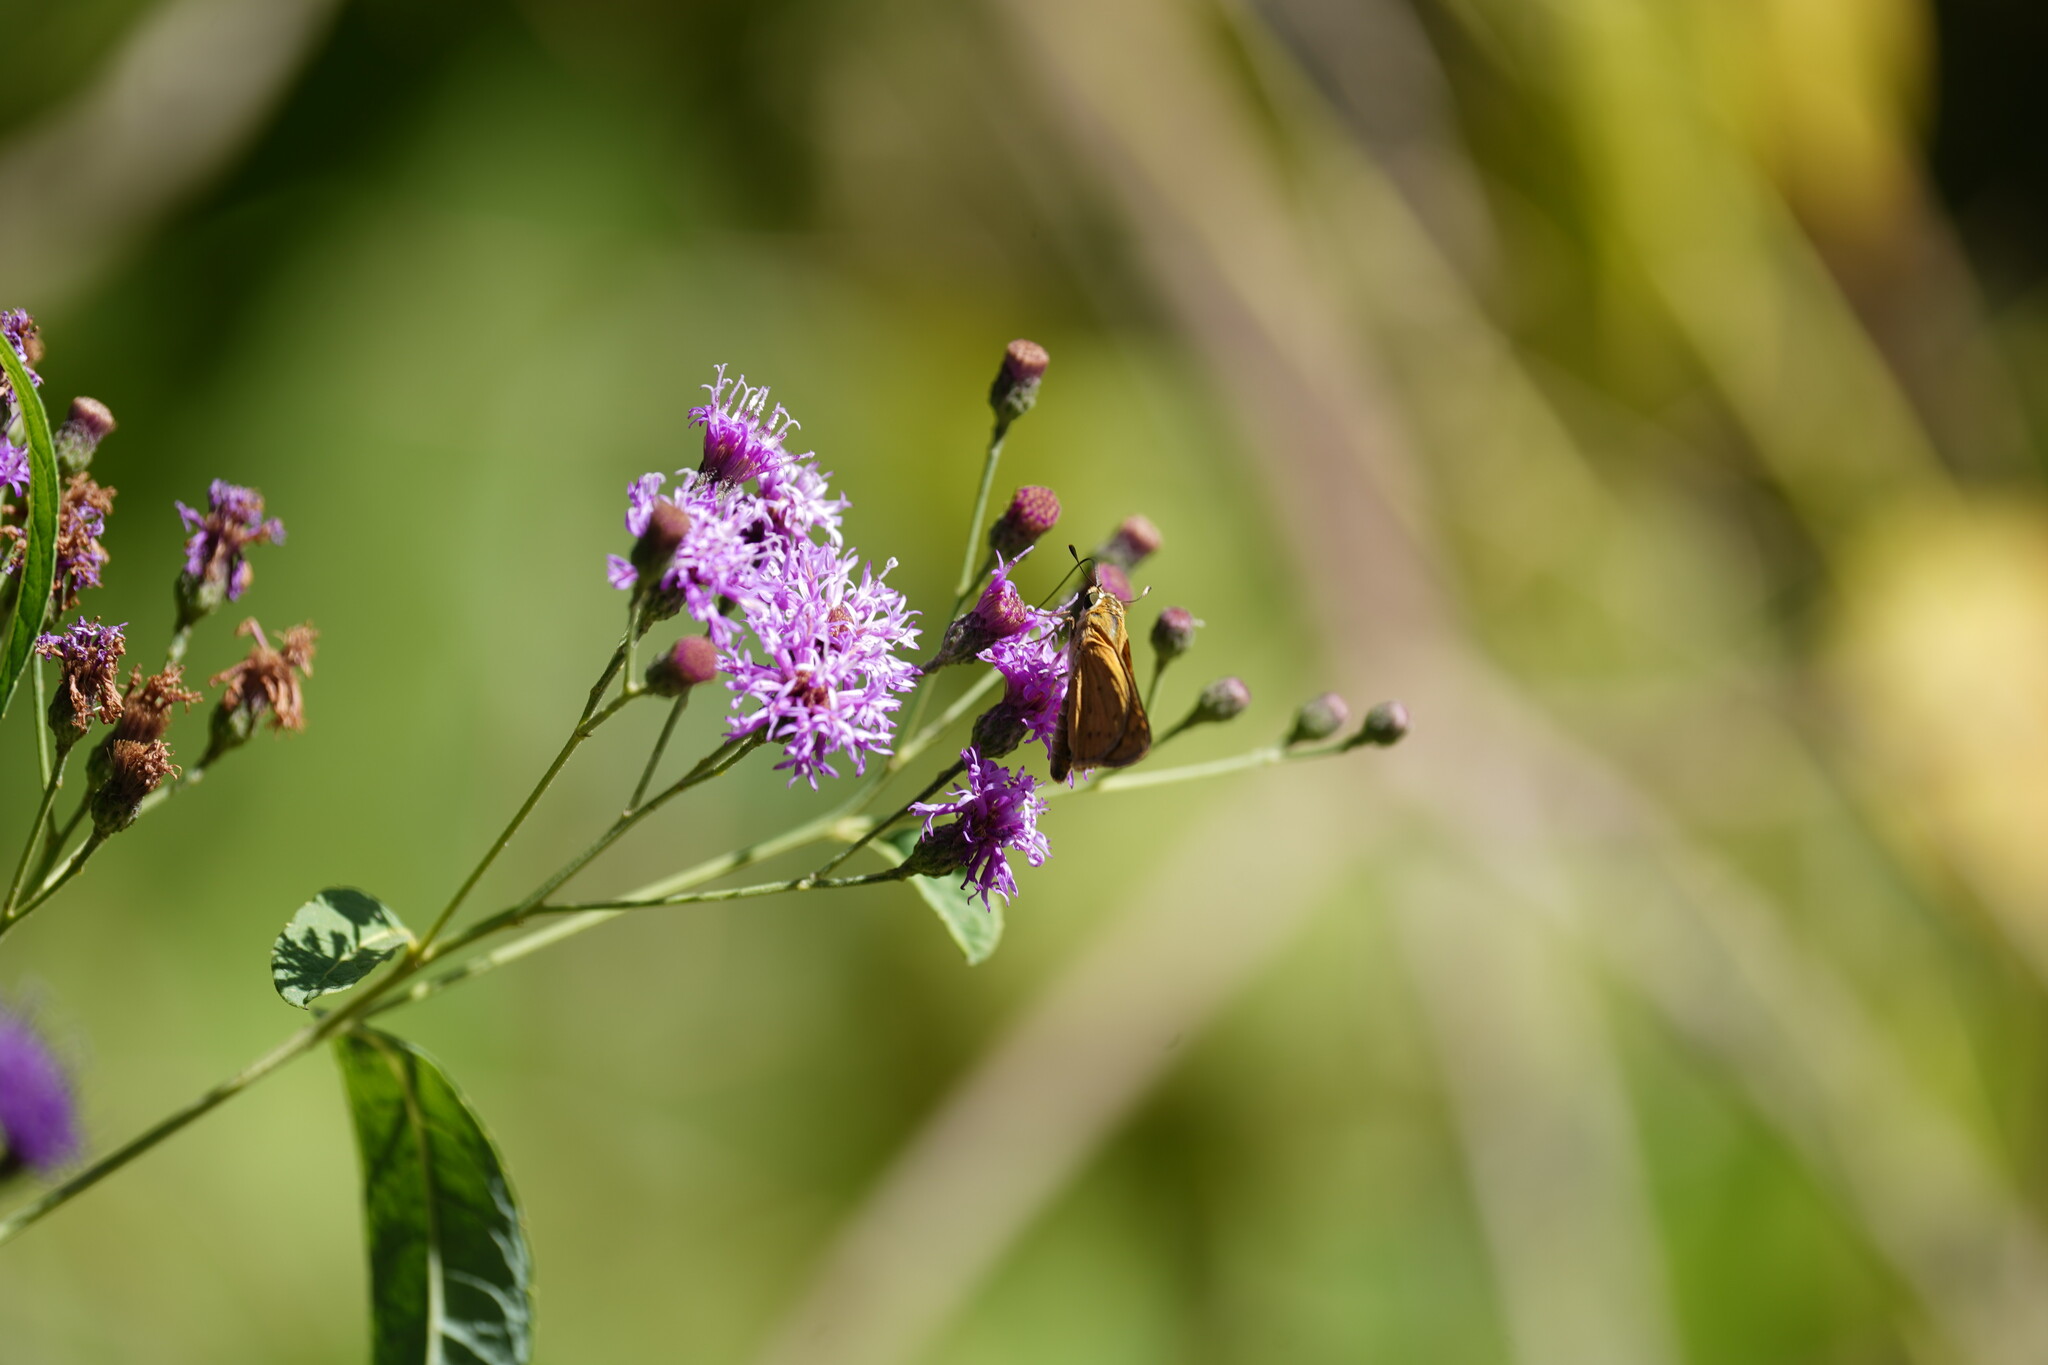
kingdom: Animalia
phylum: Arthropoda
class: Insecta
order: Lepidoptera
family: Hesperiidae
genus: Hylephila
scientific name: Hylephila phyleus
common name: Fiery skipper
